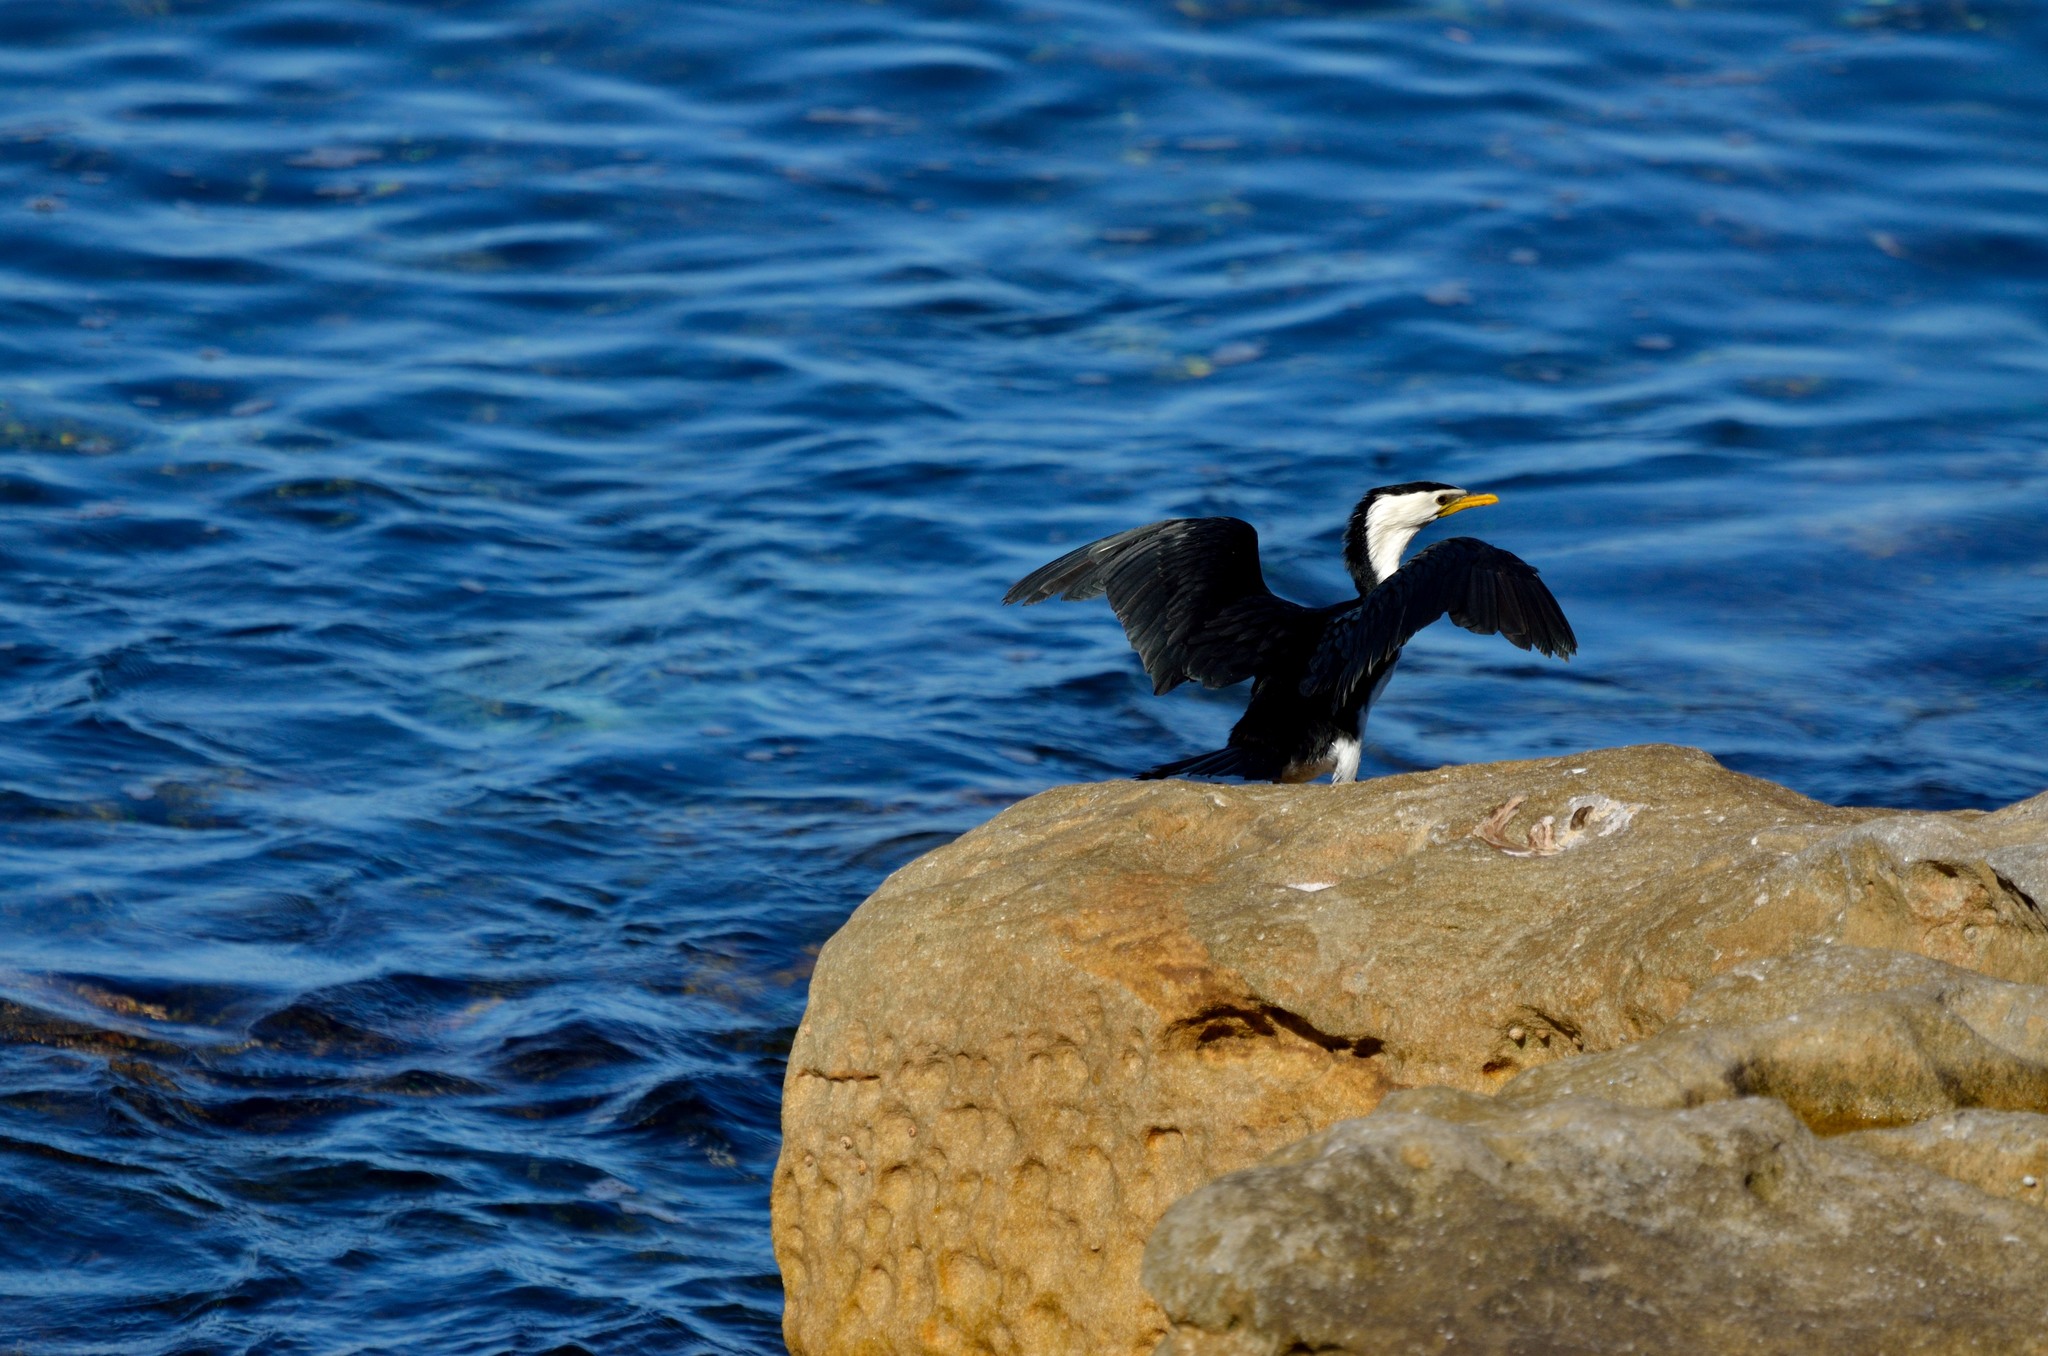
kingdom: Animalia
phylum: Chordata
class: Aves
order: Suliformes
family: Phalacrocoracidae
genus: Microcarbo
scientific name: Microcarbo melanoleucos
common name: Little pied cormorant
